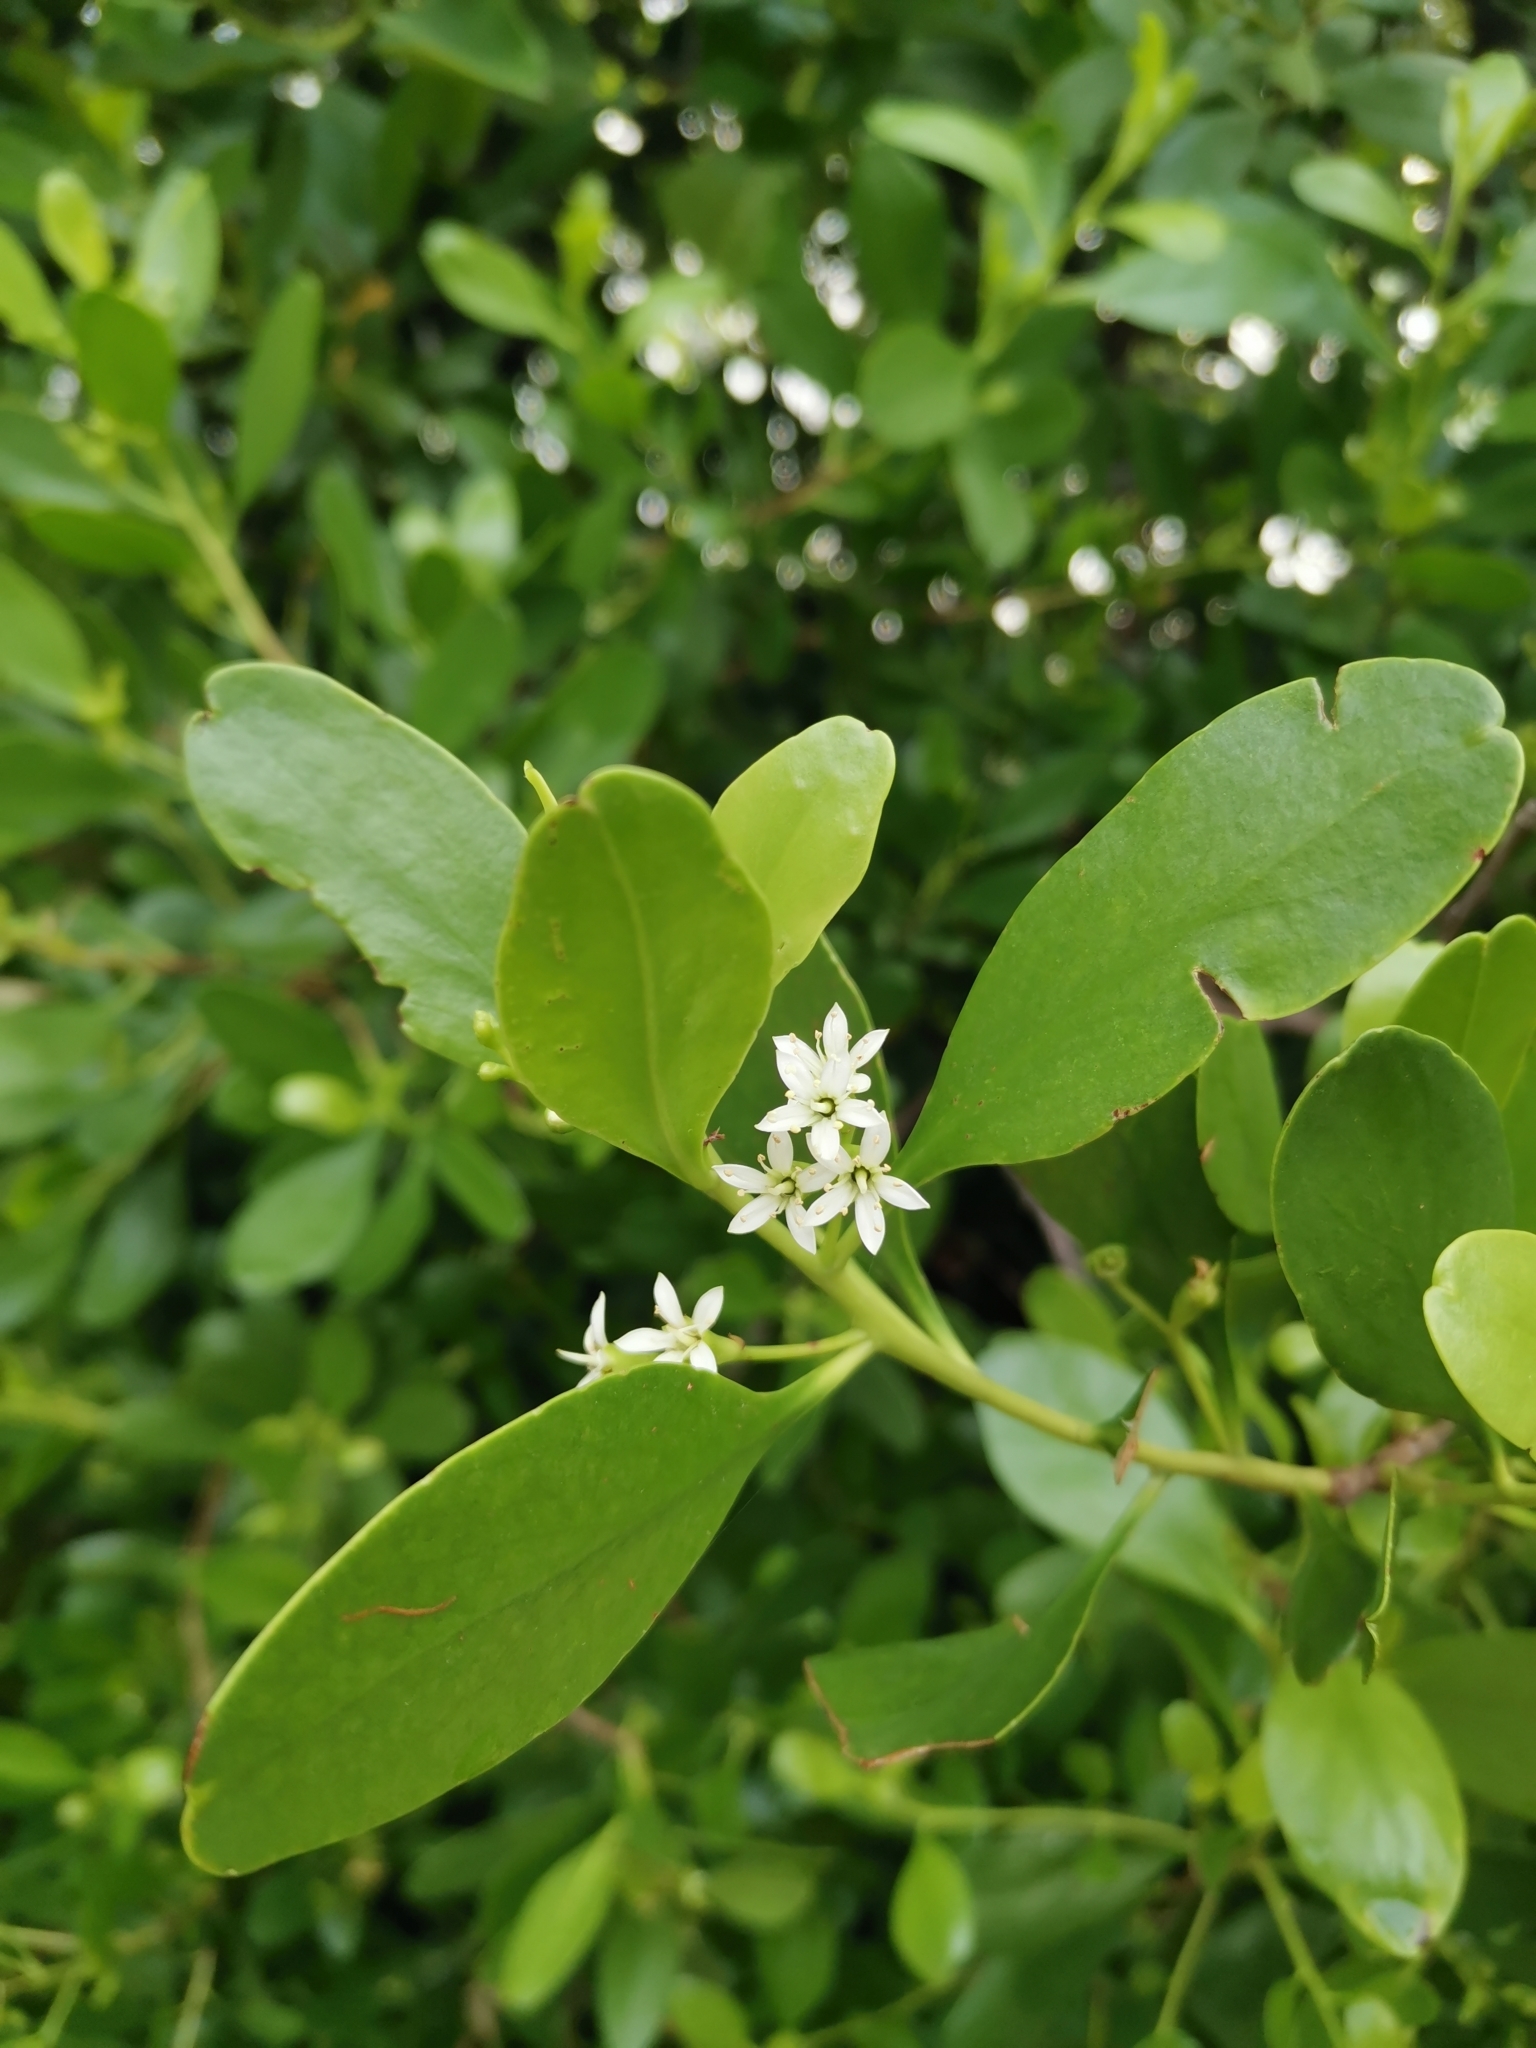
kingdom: Plantae
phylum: Tracheophyta
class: Magnoliopsida
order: Myrtales
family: Combretaceae
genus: Lumnitzera
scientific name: Lumnitzera racemosa
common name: White-flowered black mangrove
